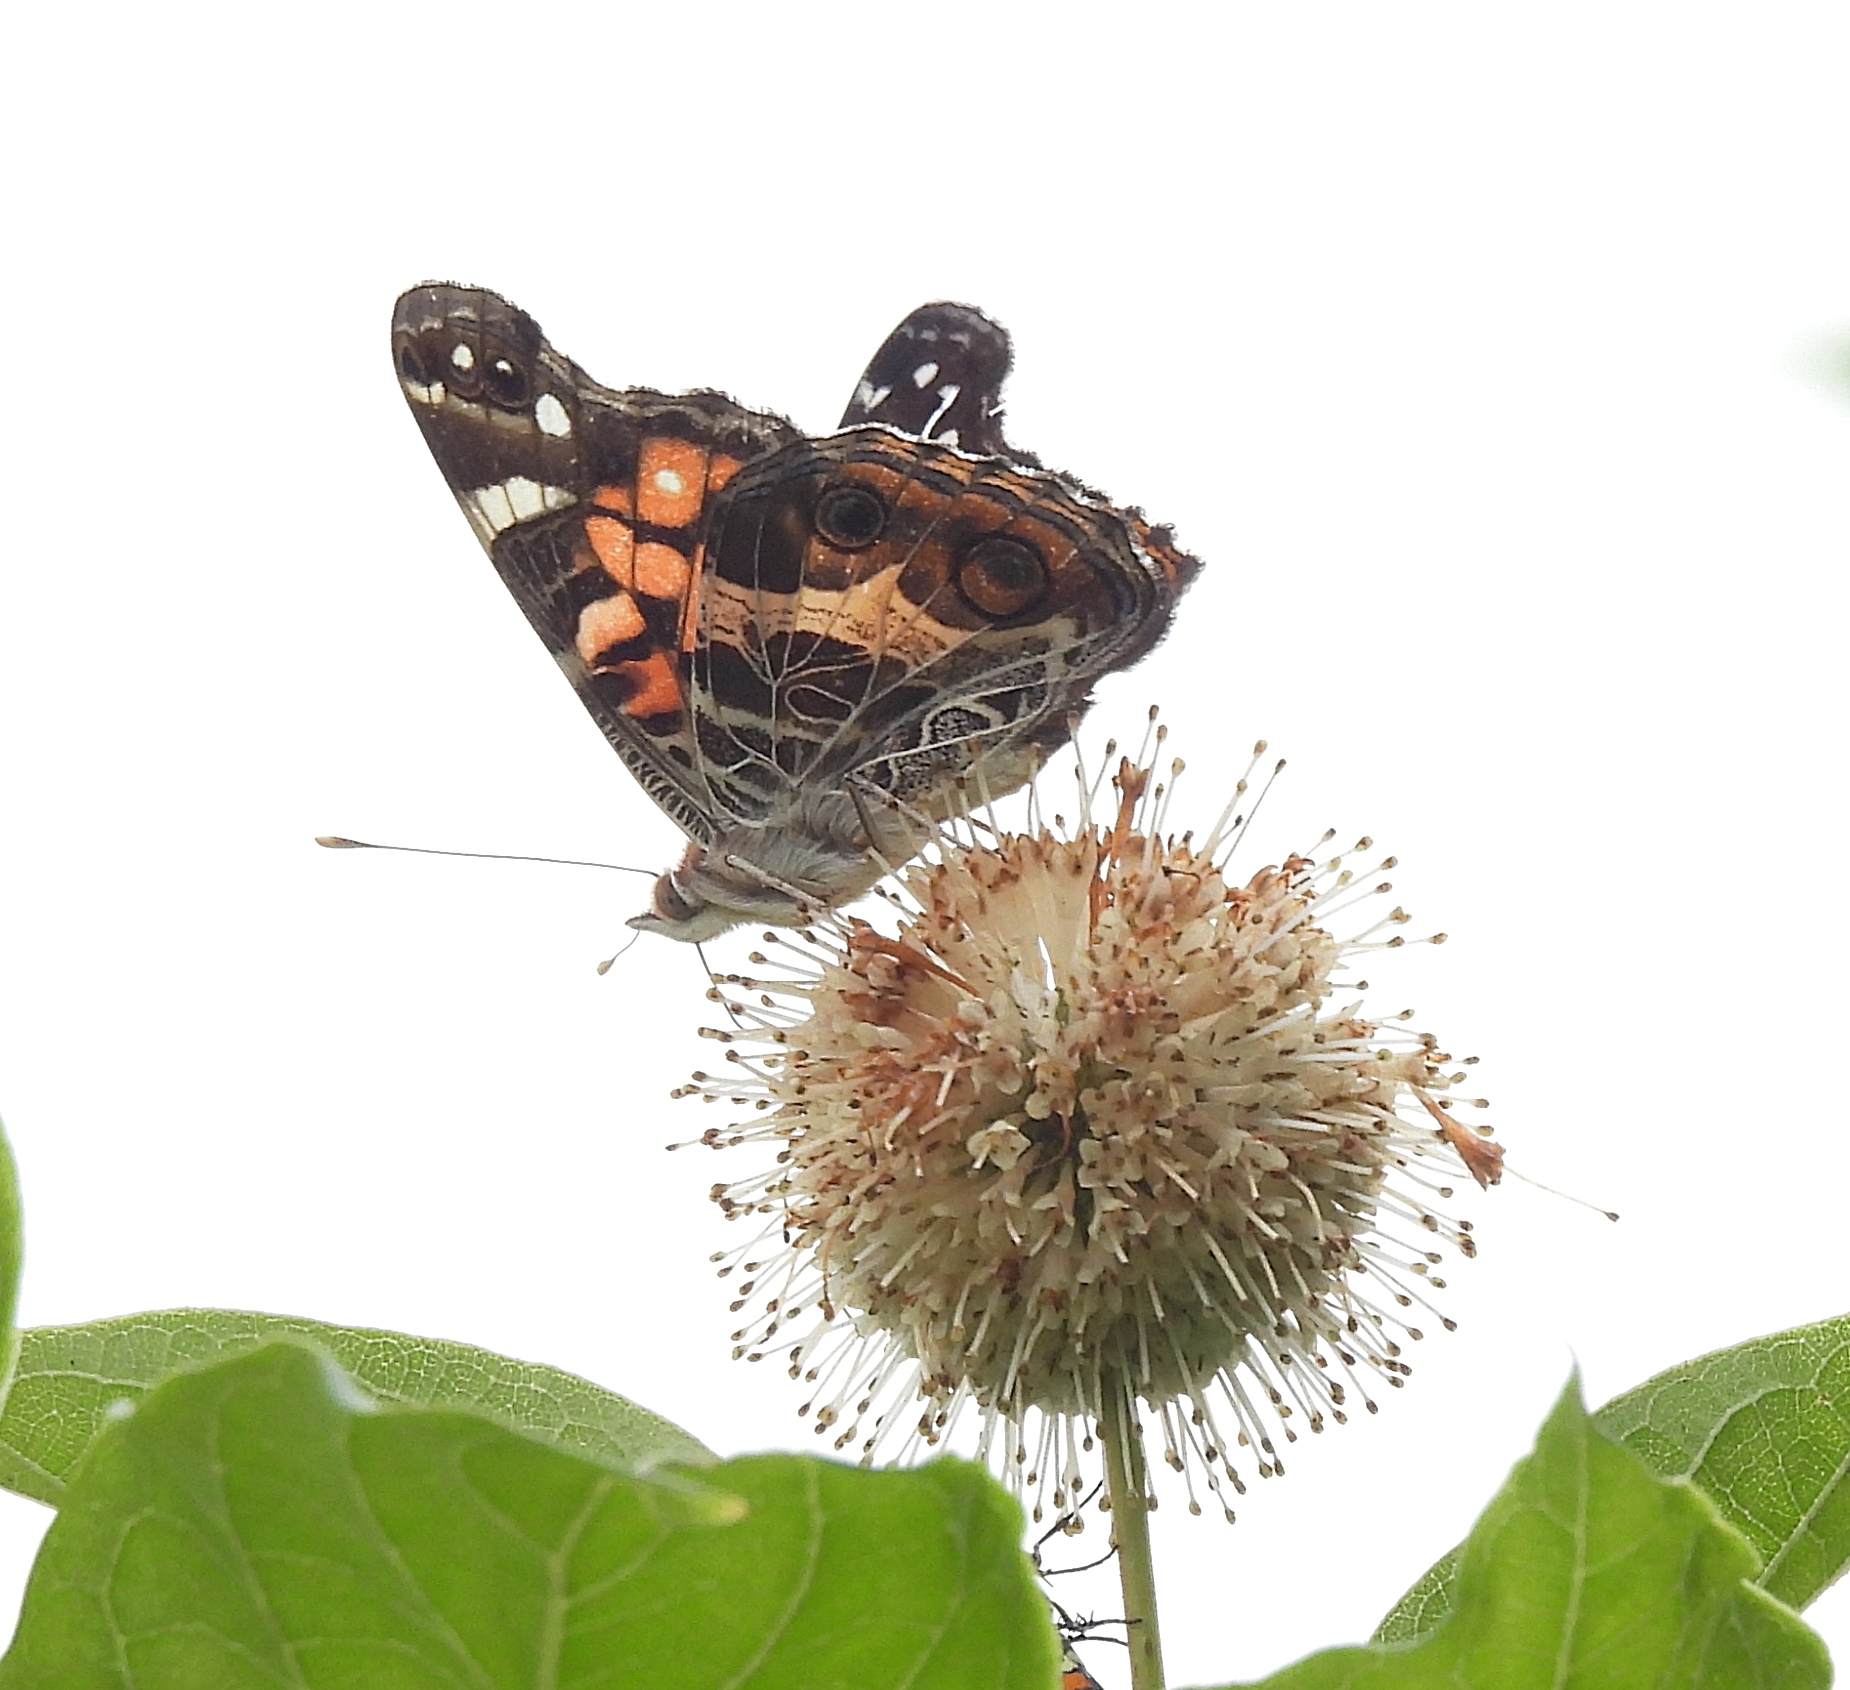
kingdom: Animalia
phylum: Arthropoda
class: Insecta
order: Lepidoptera
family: Nymphalidae
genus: Vanessa
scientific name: Vanessa virginiensis
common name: American lady
